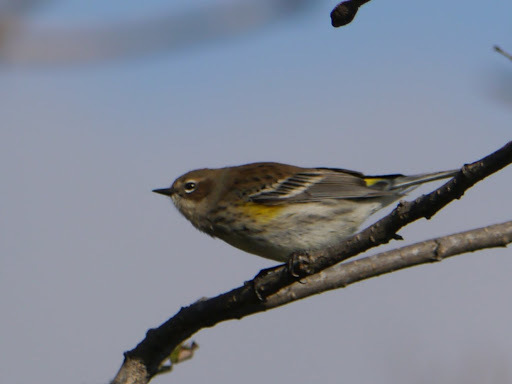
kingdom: Animalia
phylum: Chordata
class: Aves
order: Passeriformes
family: Parulidae
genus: Setophaga
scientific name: Setophaga coronata
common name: Myrtle warbler
